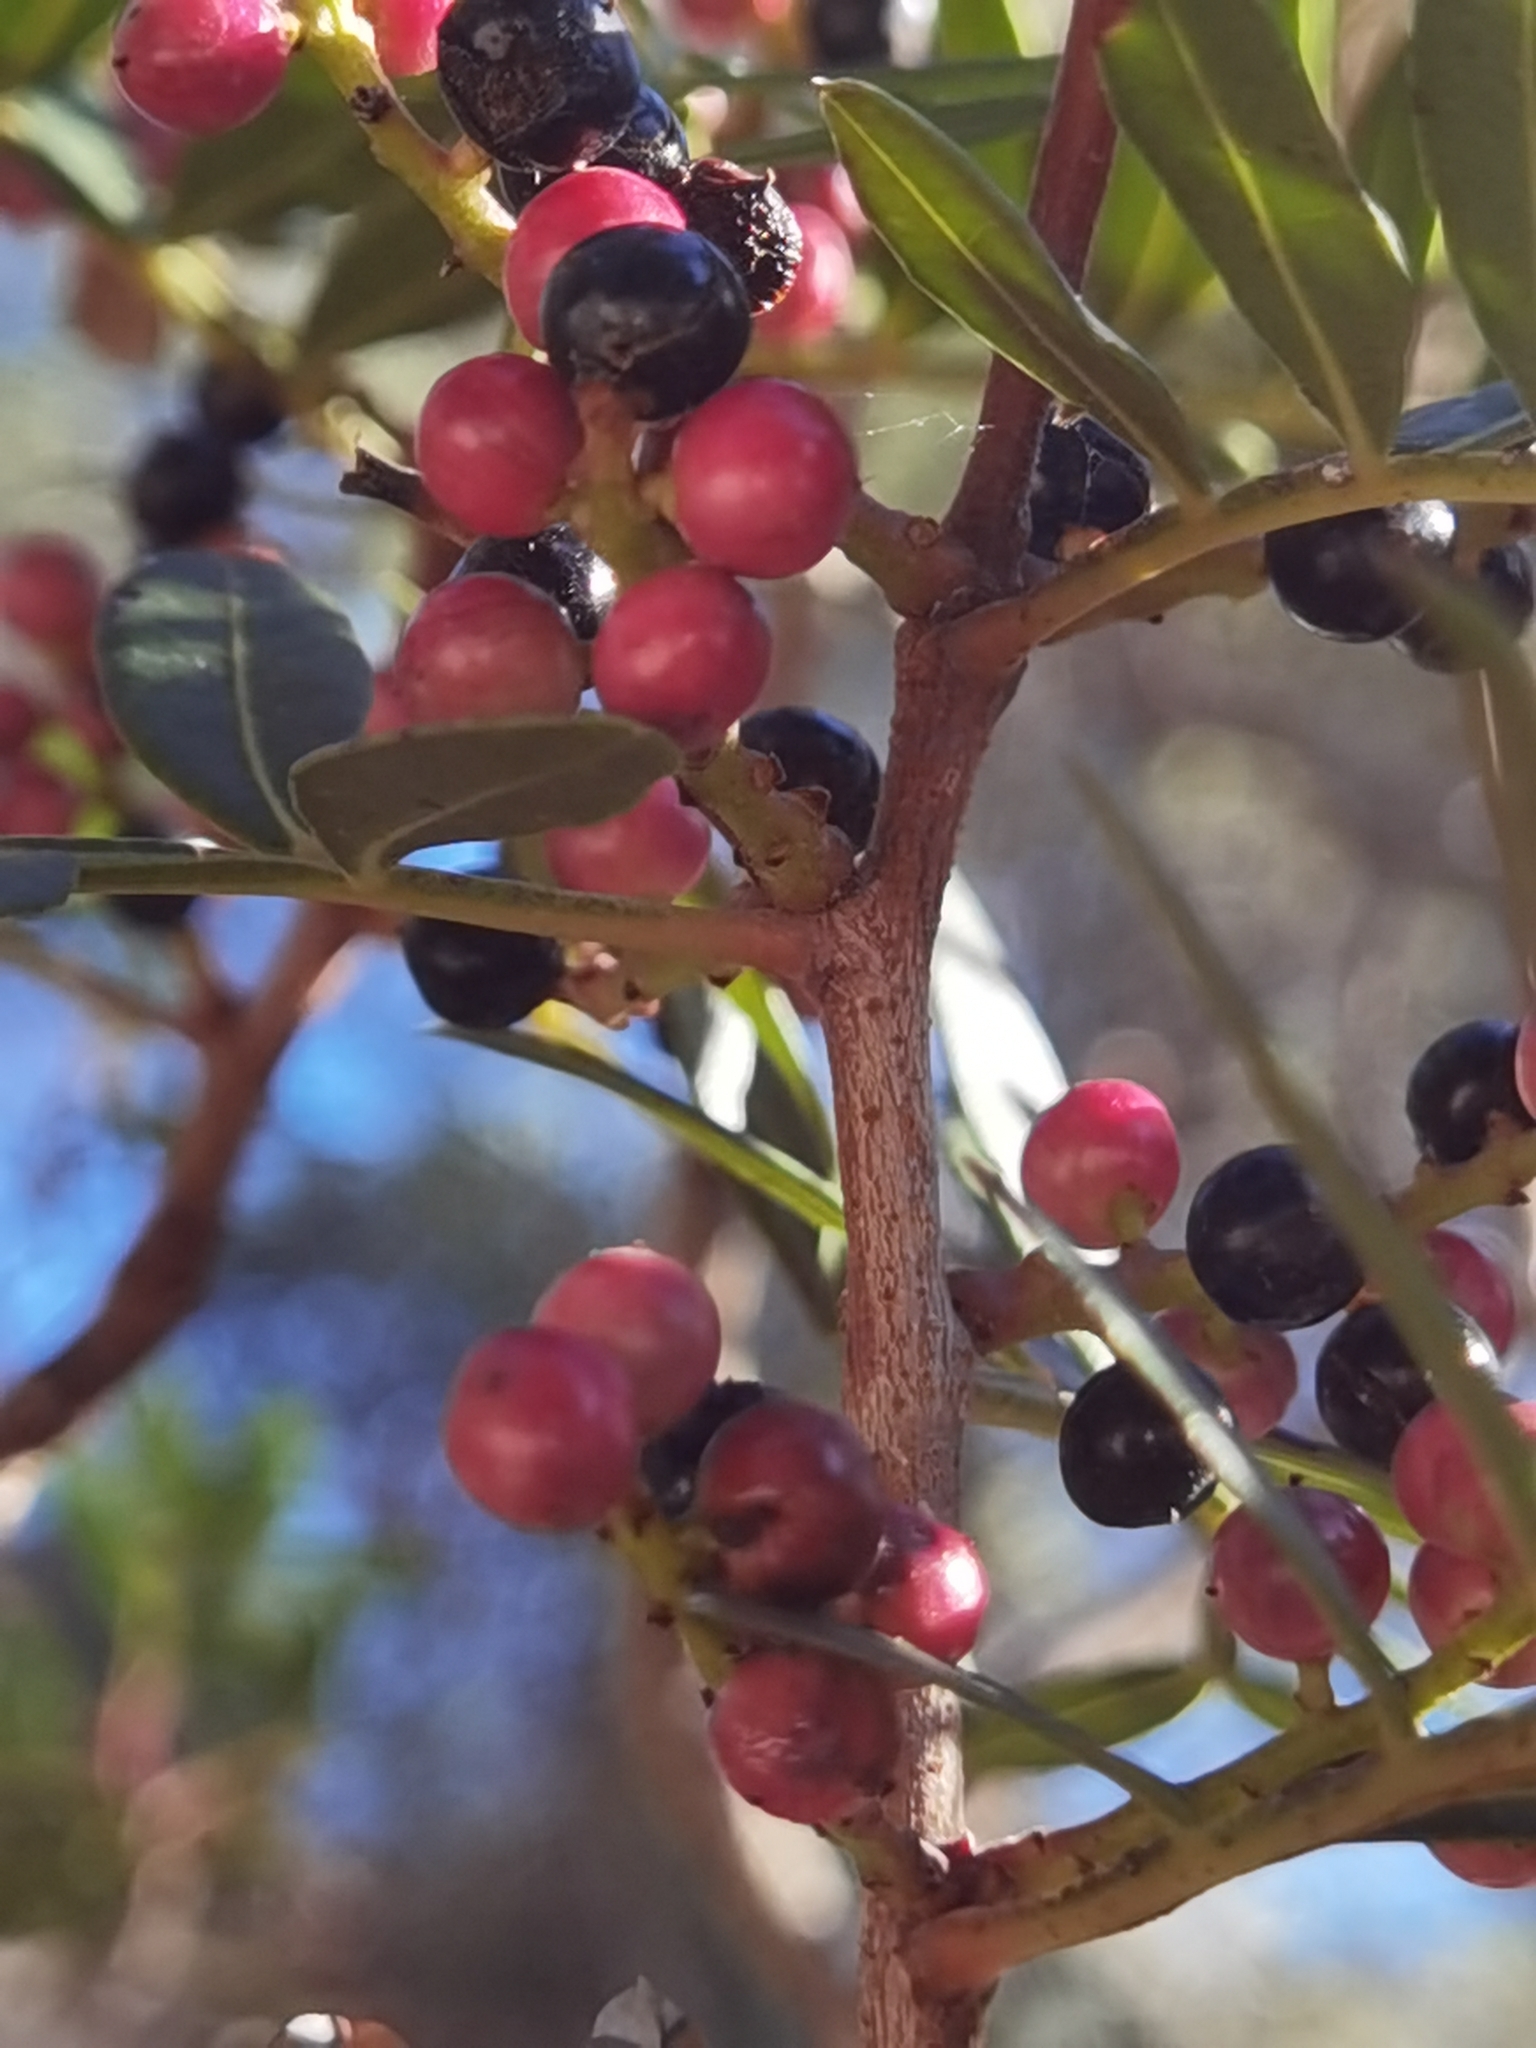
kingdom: Plantae
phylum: Tracheophyta
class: Magnoliopsida
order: Sapindales
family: Anacardiaceae
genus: Pistacia
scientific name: Pistacia lentiscus
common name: Lentisk
